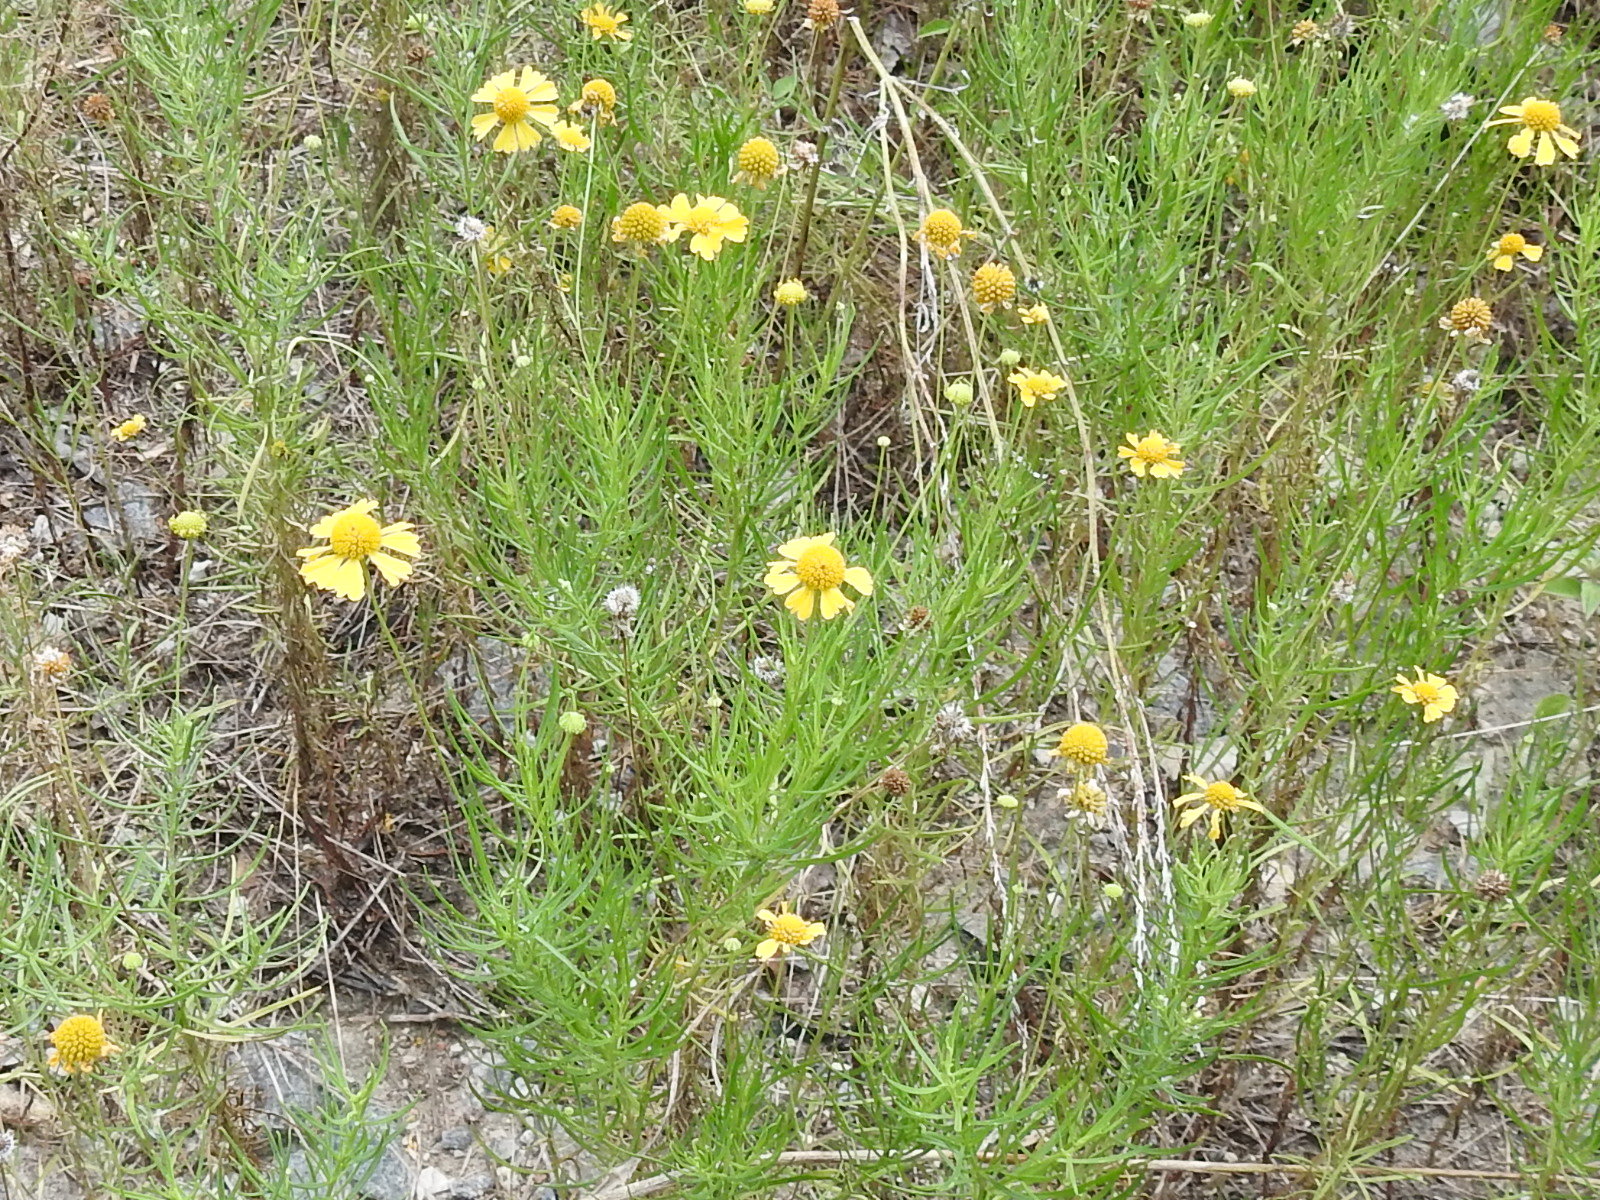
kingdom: Plantae
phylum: Tracheophyta
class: Magnoliopsida
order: Asterales
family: Asteraceae
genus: Helenium
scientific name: Helenium amarum
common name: Bitter sneezeweed
